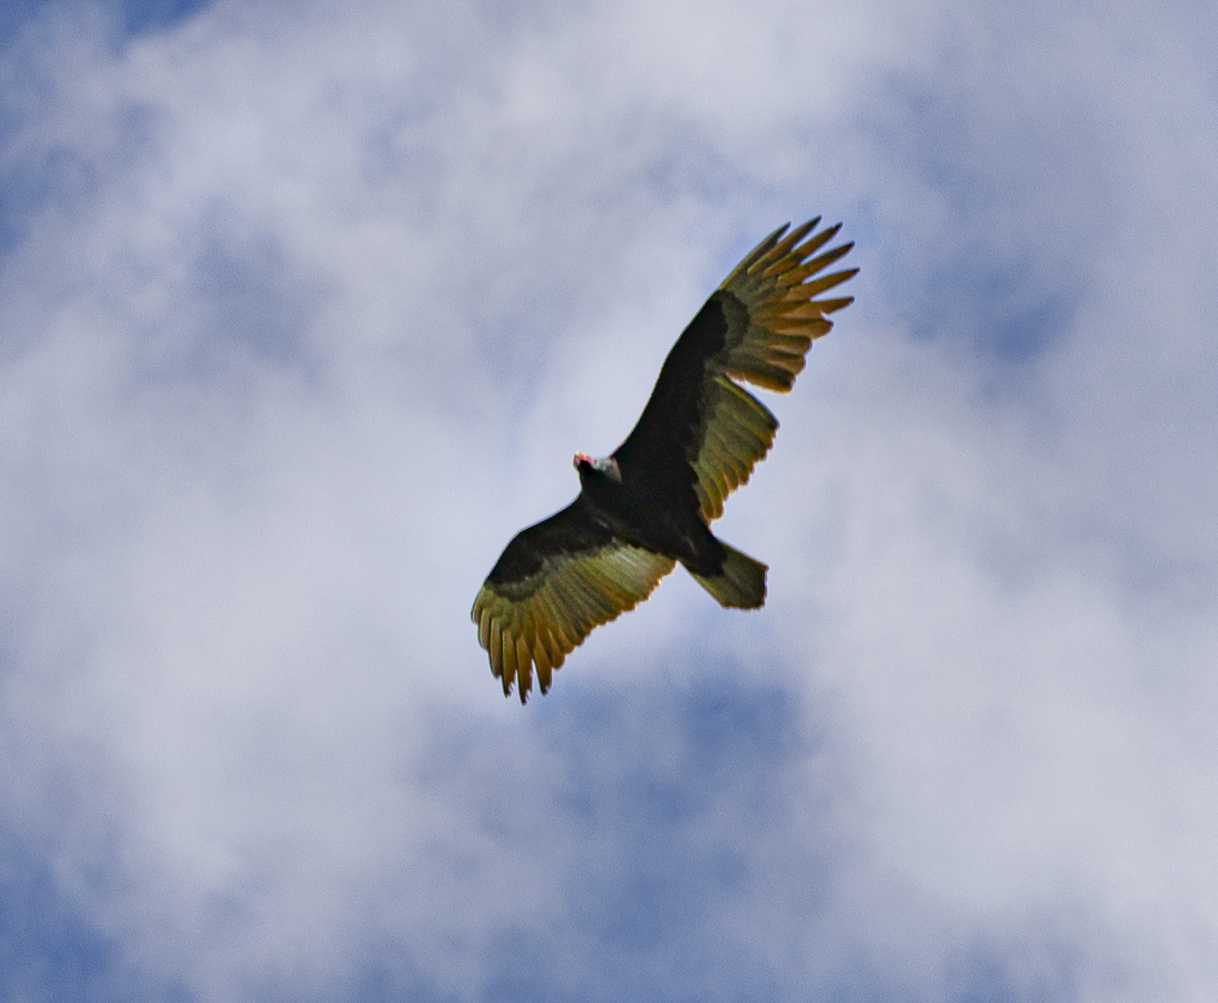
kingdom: Animalia
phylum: Chordata
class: Aves
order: Accipitriformes
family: Cathartidae
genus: Cathartes
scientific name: Cathartes aura
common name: Turkey vulture
